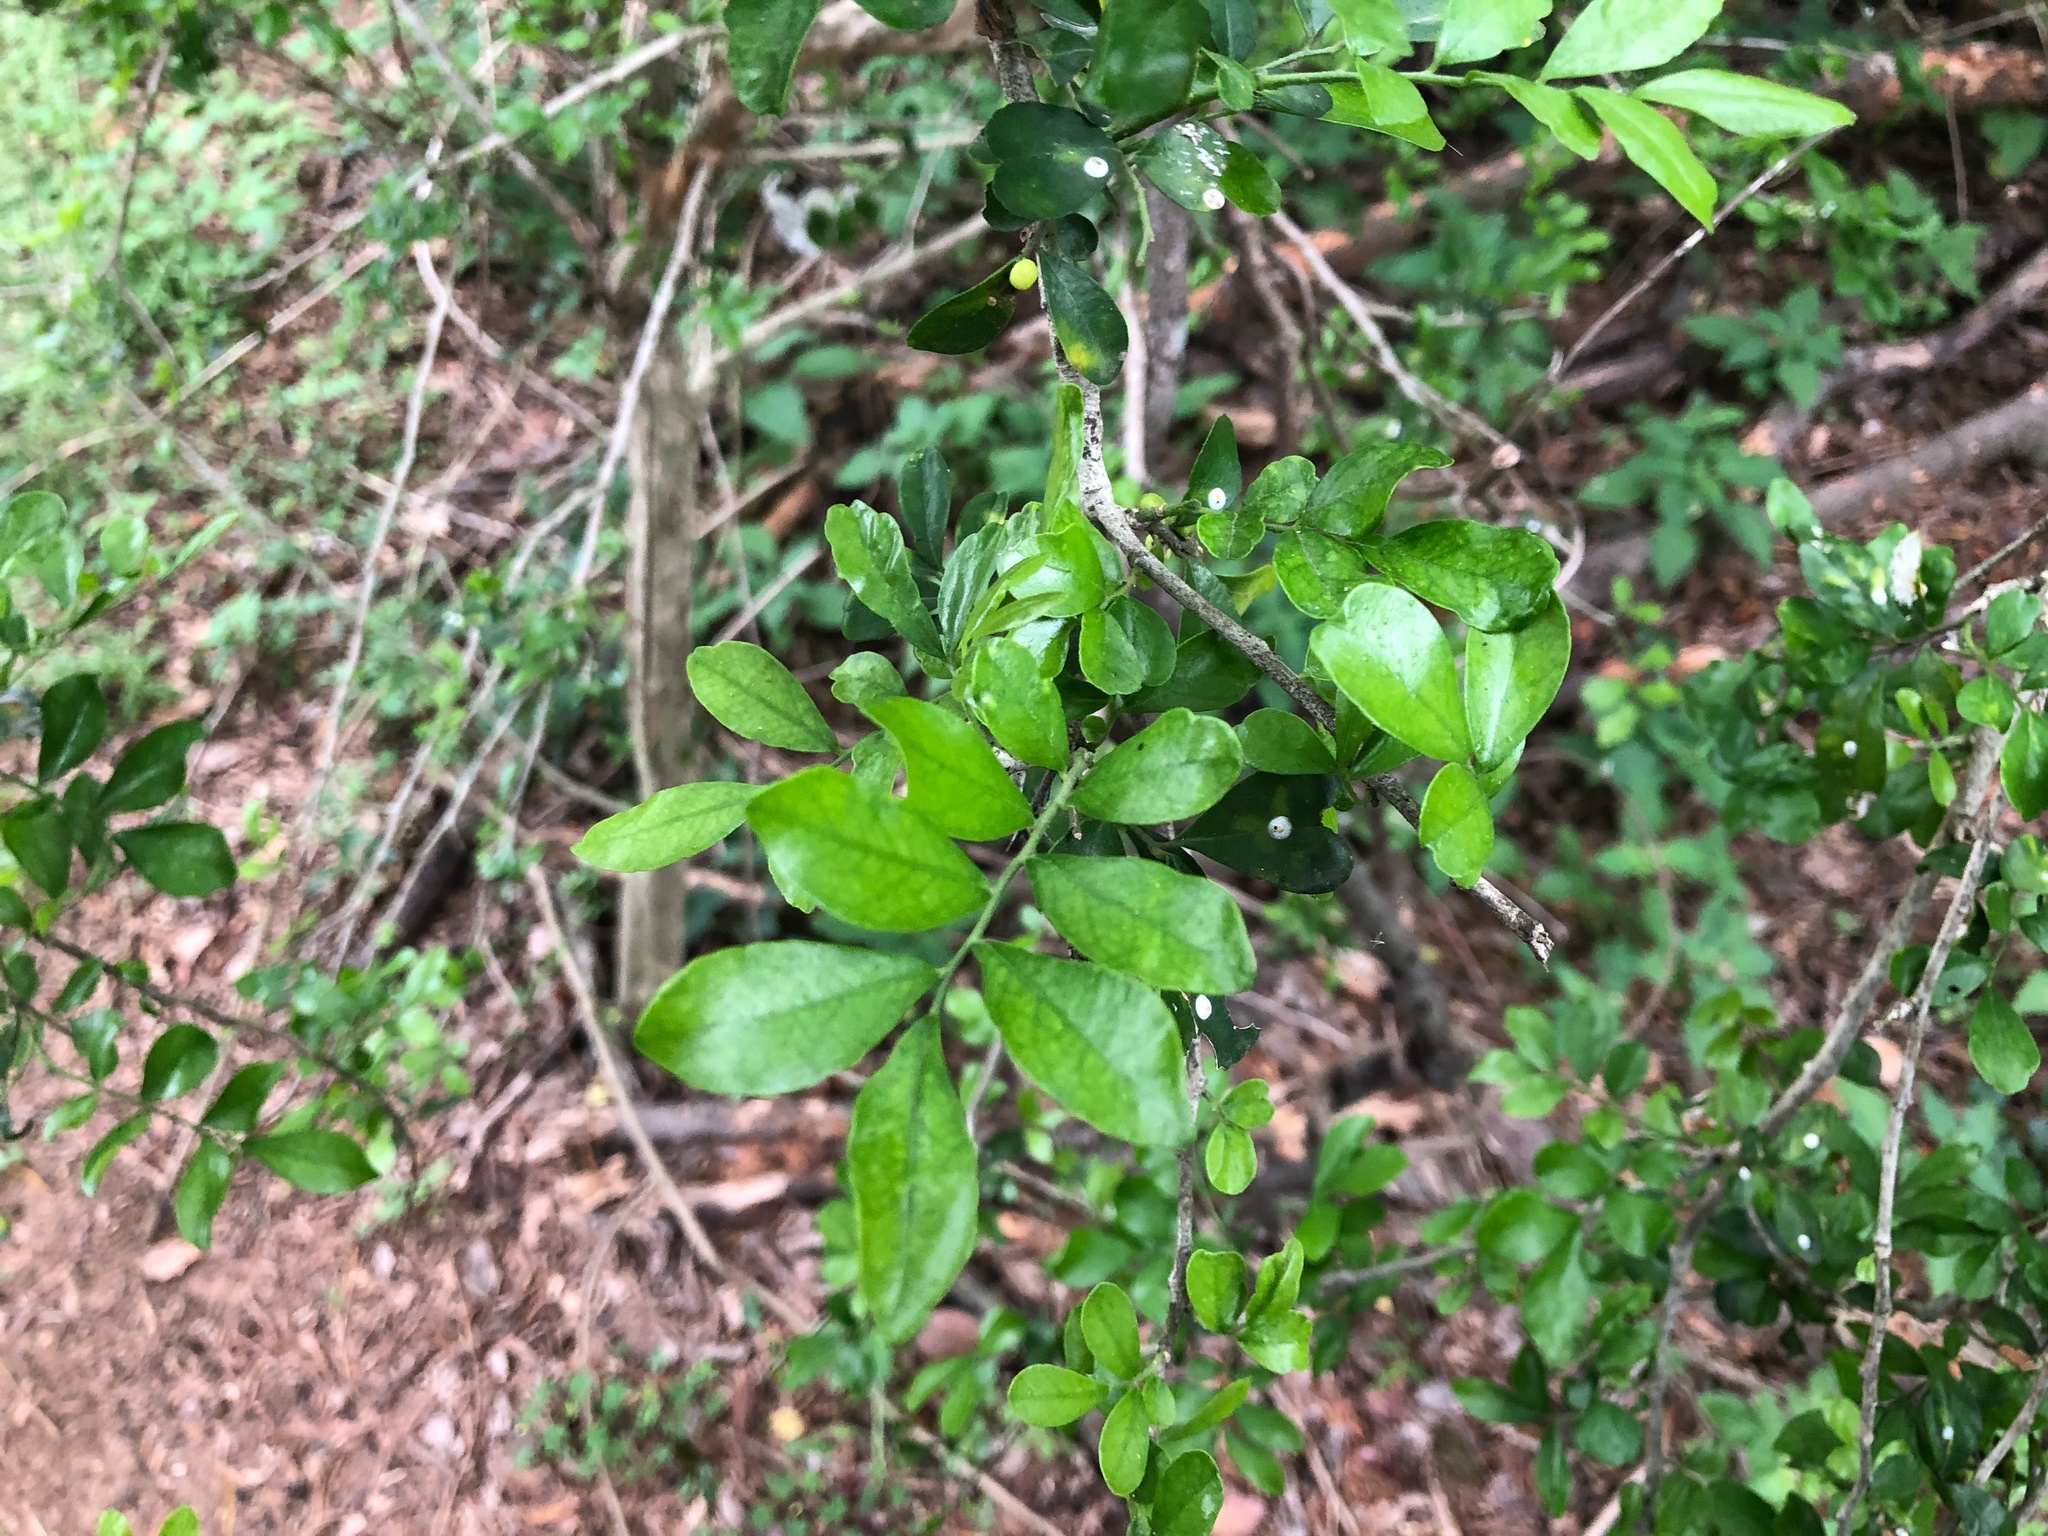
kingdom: Plantae
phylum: Tracheophyta
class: Magnoliopsida
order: Sapindales
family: Rutaceae
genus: Murraya
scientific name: Murraya paniculata
